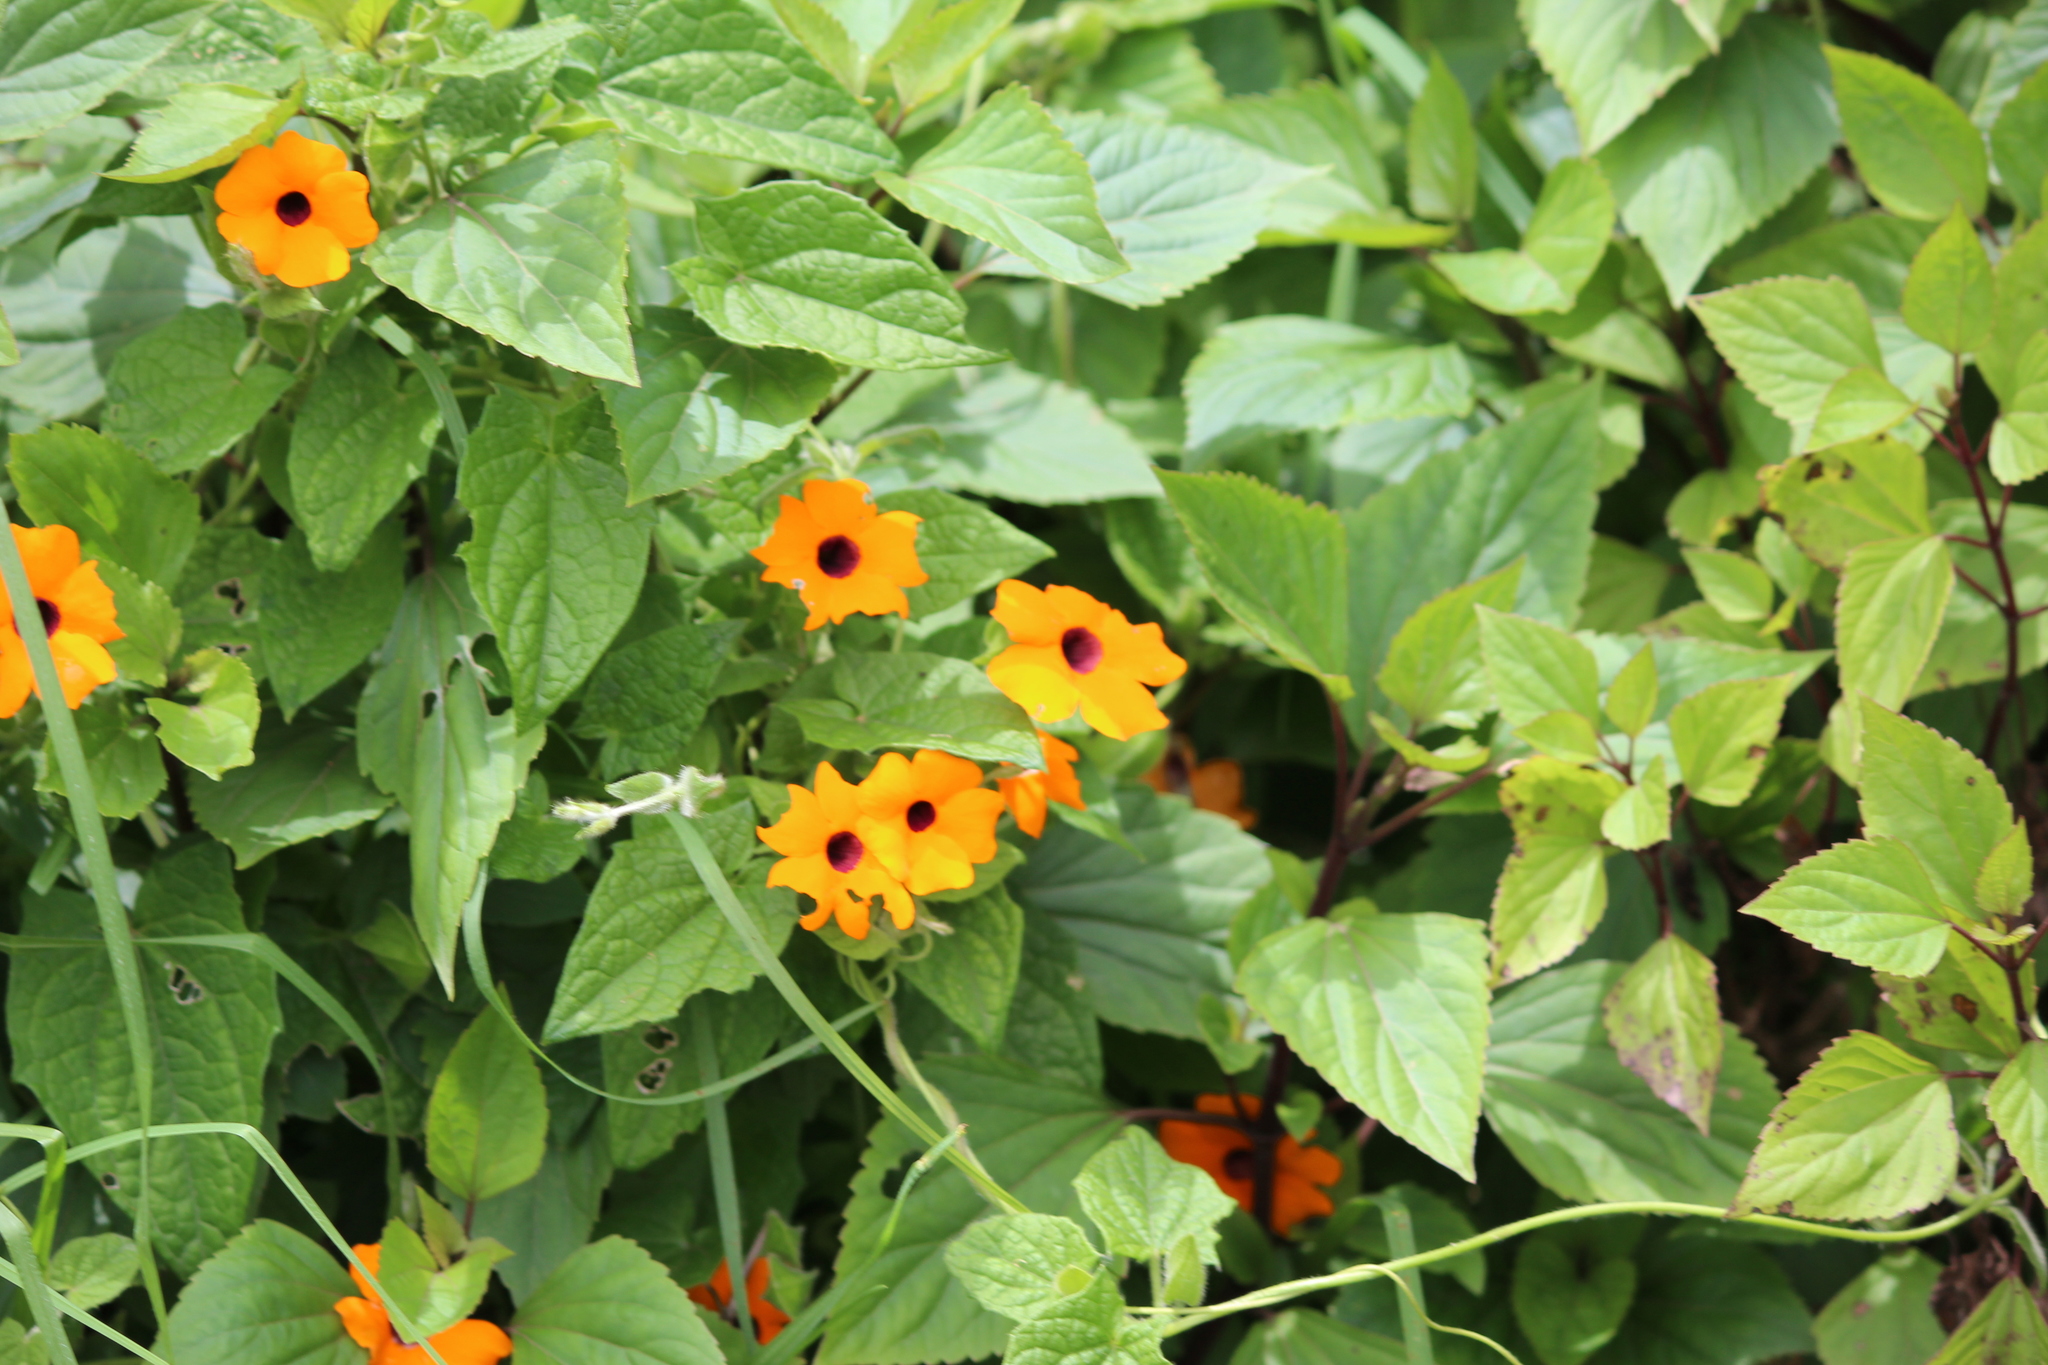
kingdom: Plantae
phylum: Tracheophyta
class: Magnoliopsida
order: Lamiales
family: Acanthaceae
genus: Thunbergia
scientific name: Thunbergia alata
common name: Blackeyed susan vine
